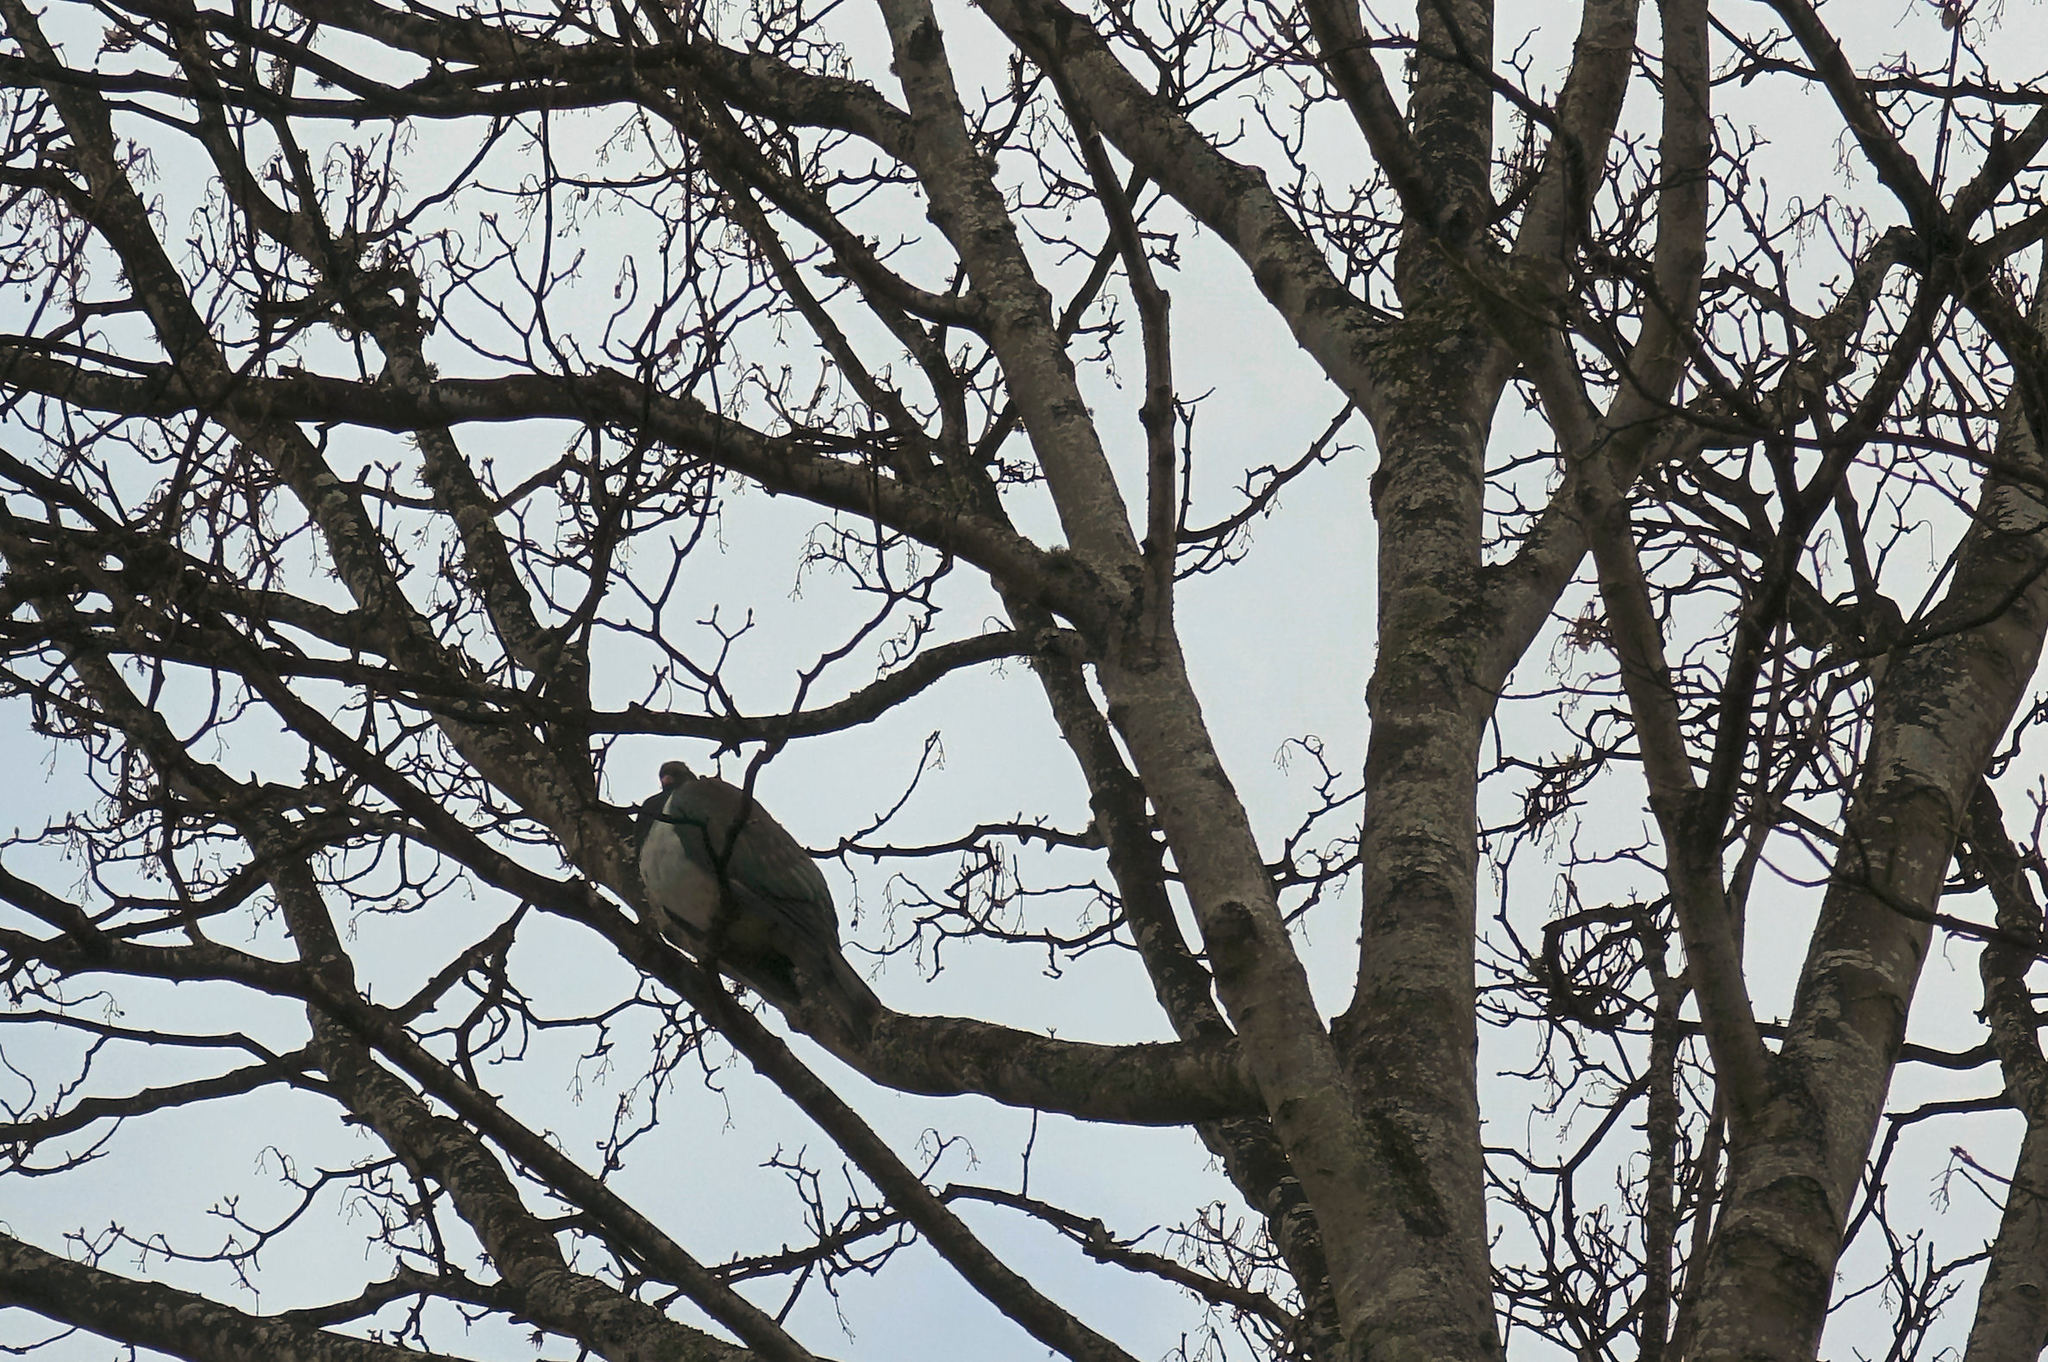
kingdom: Animalia
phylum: Chordata
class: Aves
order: Columbiformes
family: Columbidae
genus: Hemiphaga
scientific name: Hemiphaga novaeseelandiae
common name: New zealand pigeon
